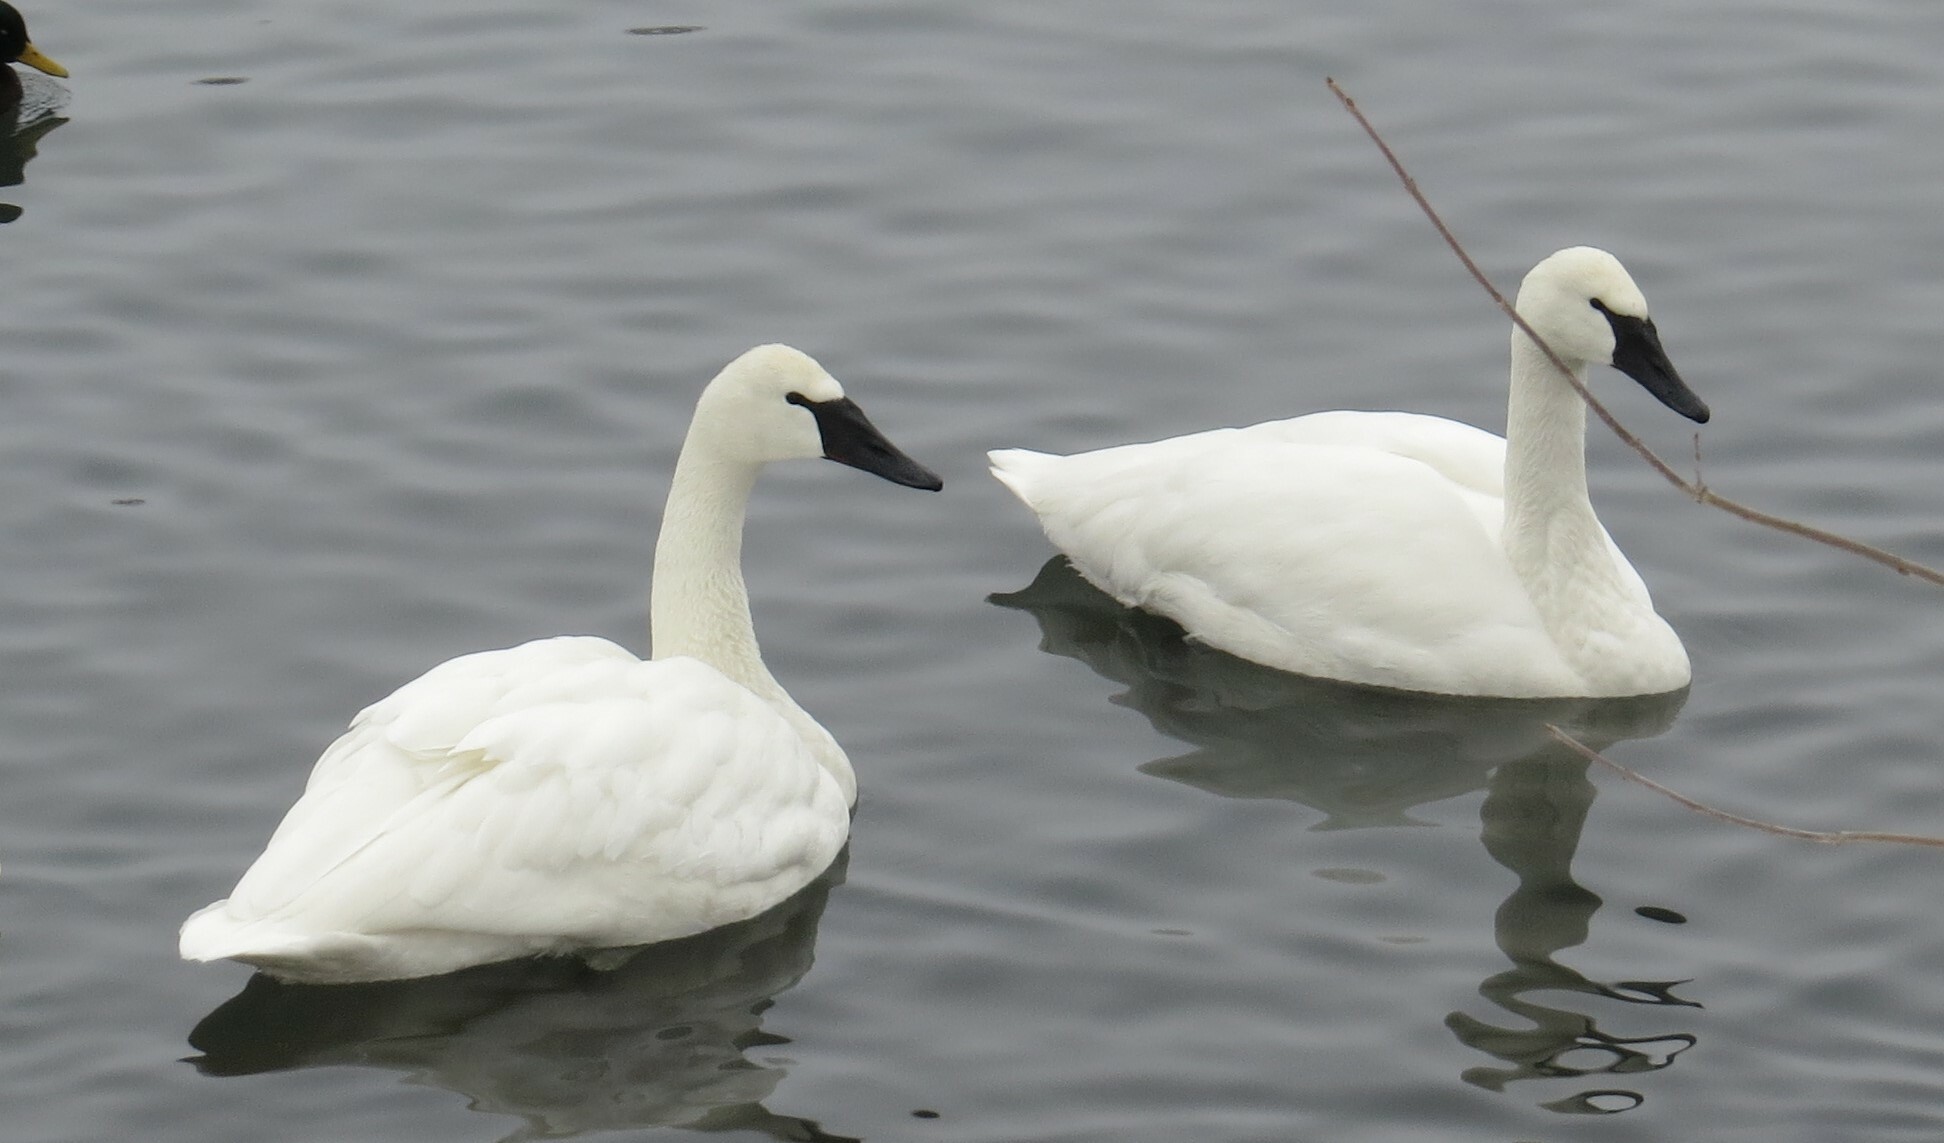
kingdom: Animalia
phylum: Chordata
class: Aves
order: Anseriformes
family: Anatidae
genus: Cygnus
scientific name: Cygnus buccinator
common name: Trumpeter swan
